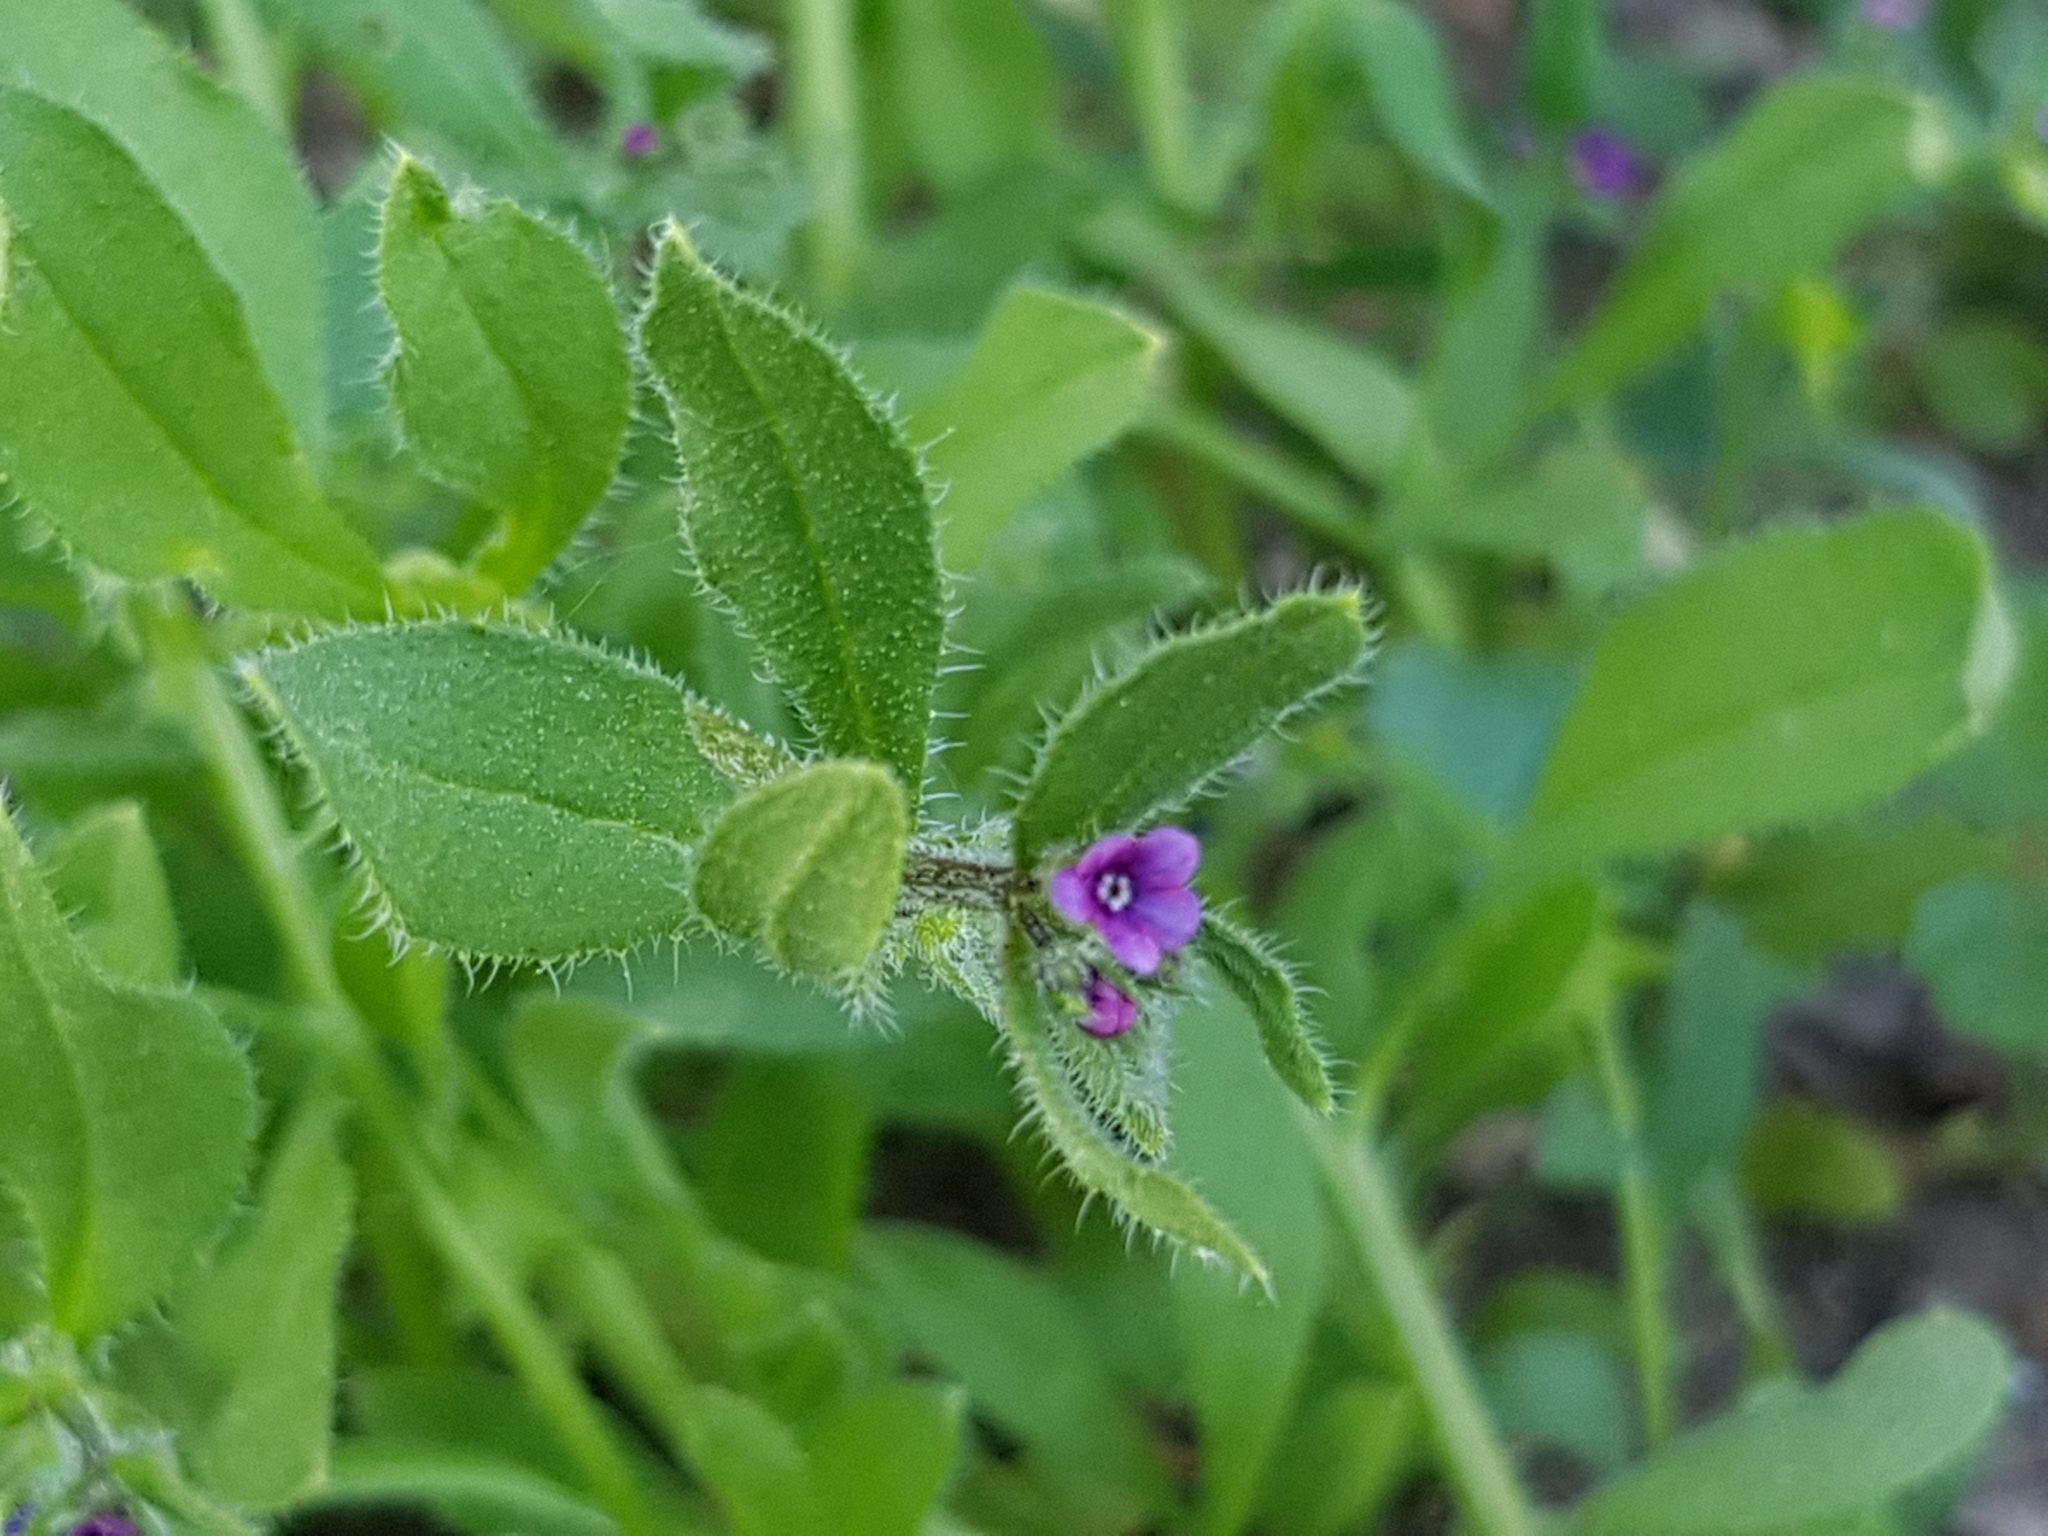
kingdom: Plantae
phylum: Tracheophyta
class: Magnoliopsida
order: Boraginales
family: Boraginaceae
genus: Asperugo
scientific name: Asperugo procumbens
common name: Madwort
